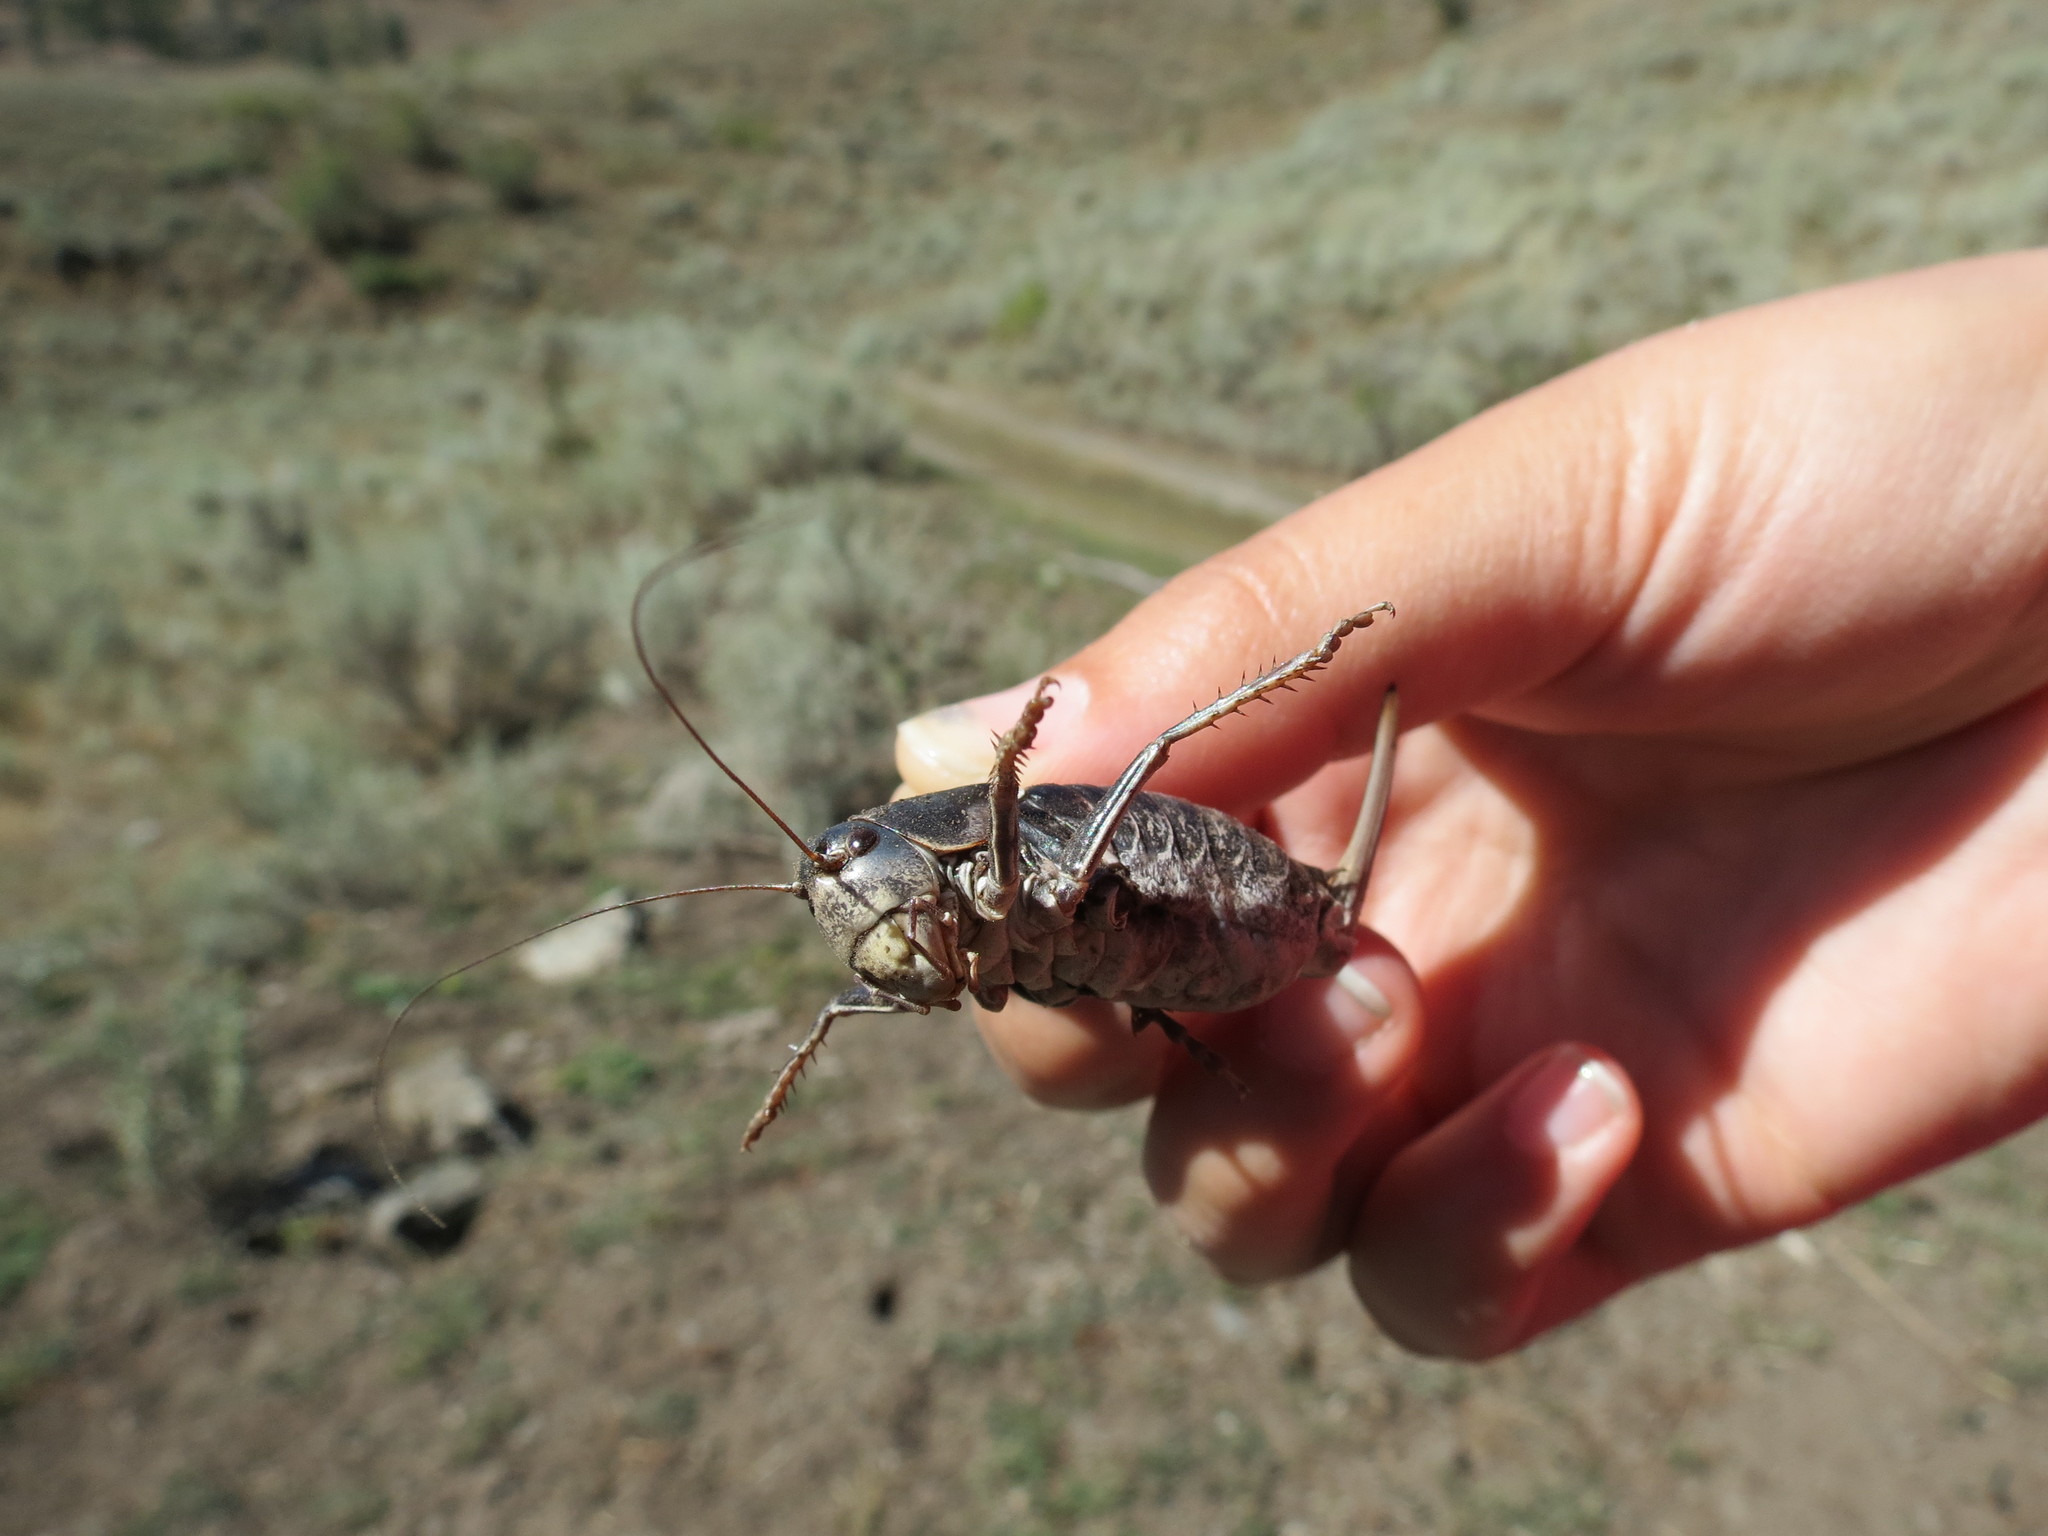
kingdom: Animalia
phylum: Arthropoda
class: Insecta
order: Orthoptera
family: Tettigoniidae
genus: Anabrus
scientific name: Anabrus longipes
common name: Long-legged anabrus
